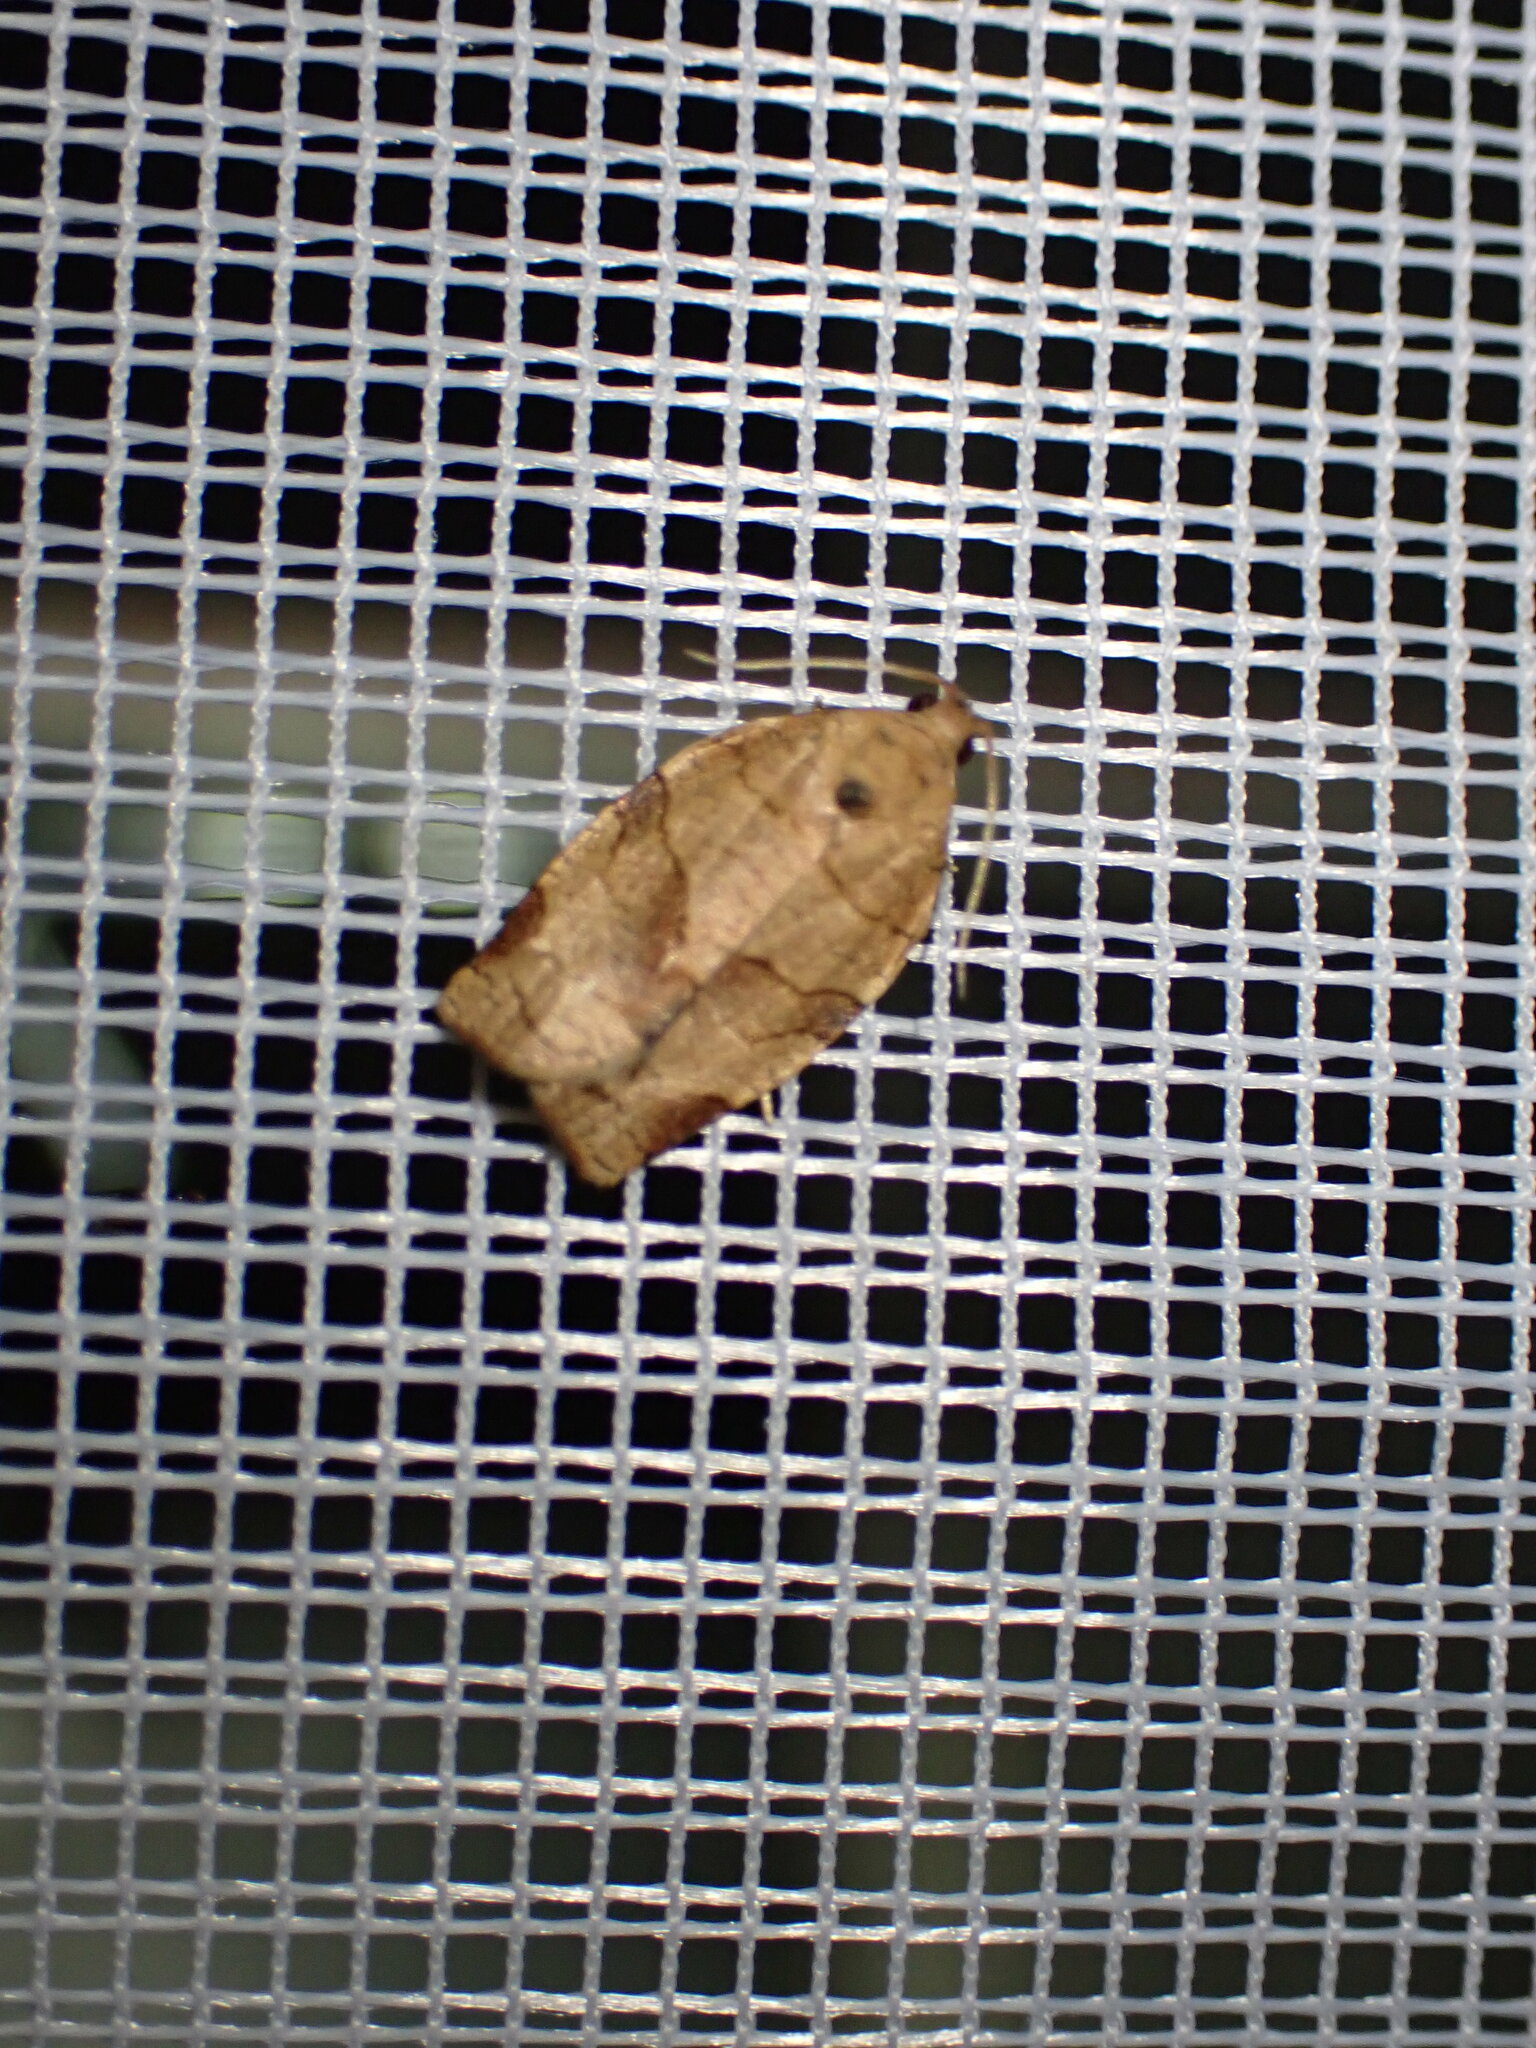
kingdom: Animalia
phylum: Arthropoda
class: Insecta
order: Lepidoptera
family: Tortricidae
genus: Choristoneura
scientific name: Choristoneura rosaceana
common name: Oblique-banded leafroller moth
